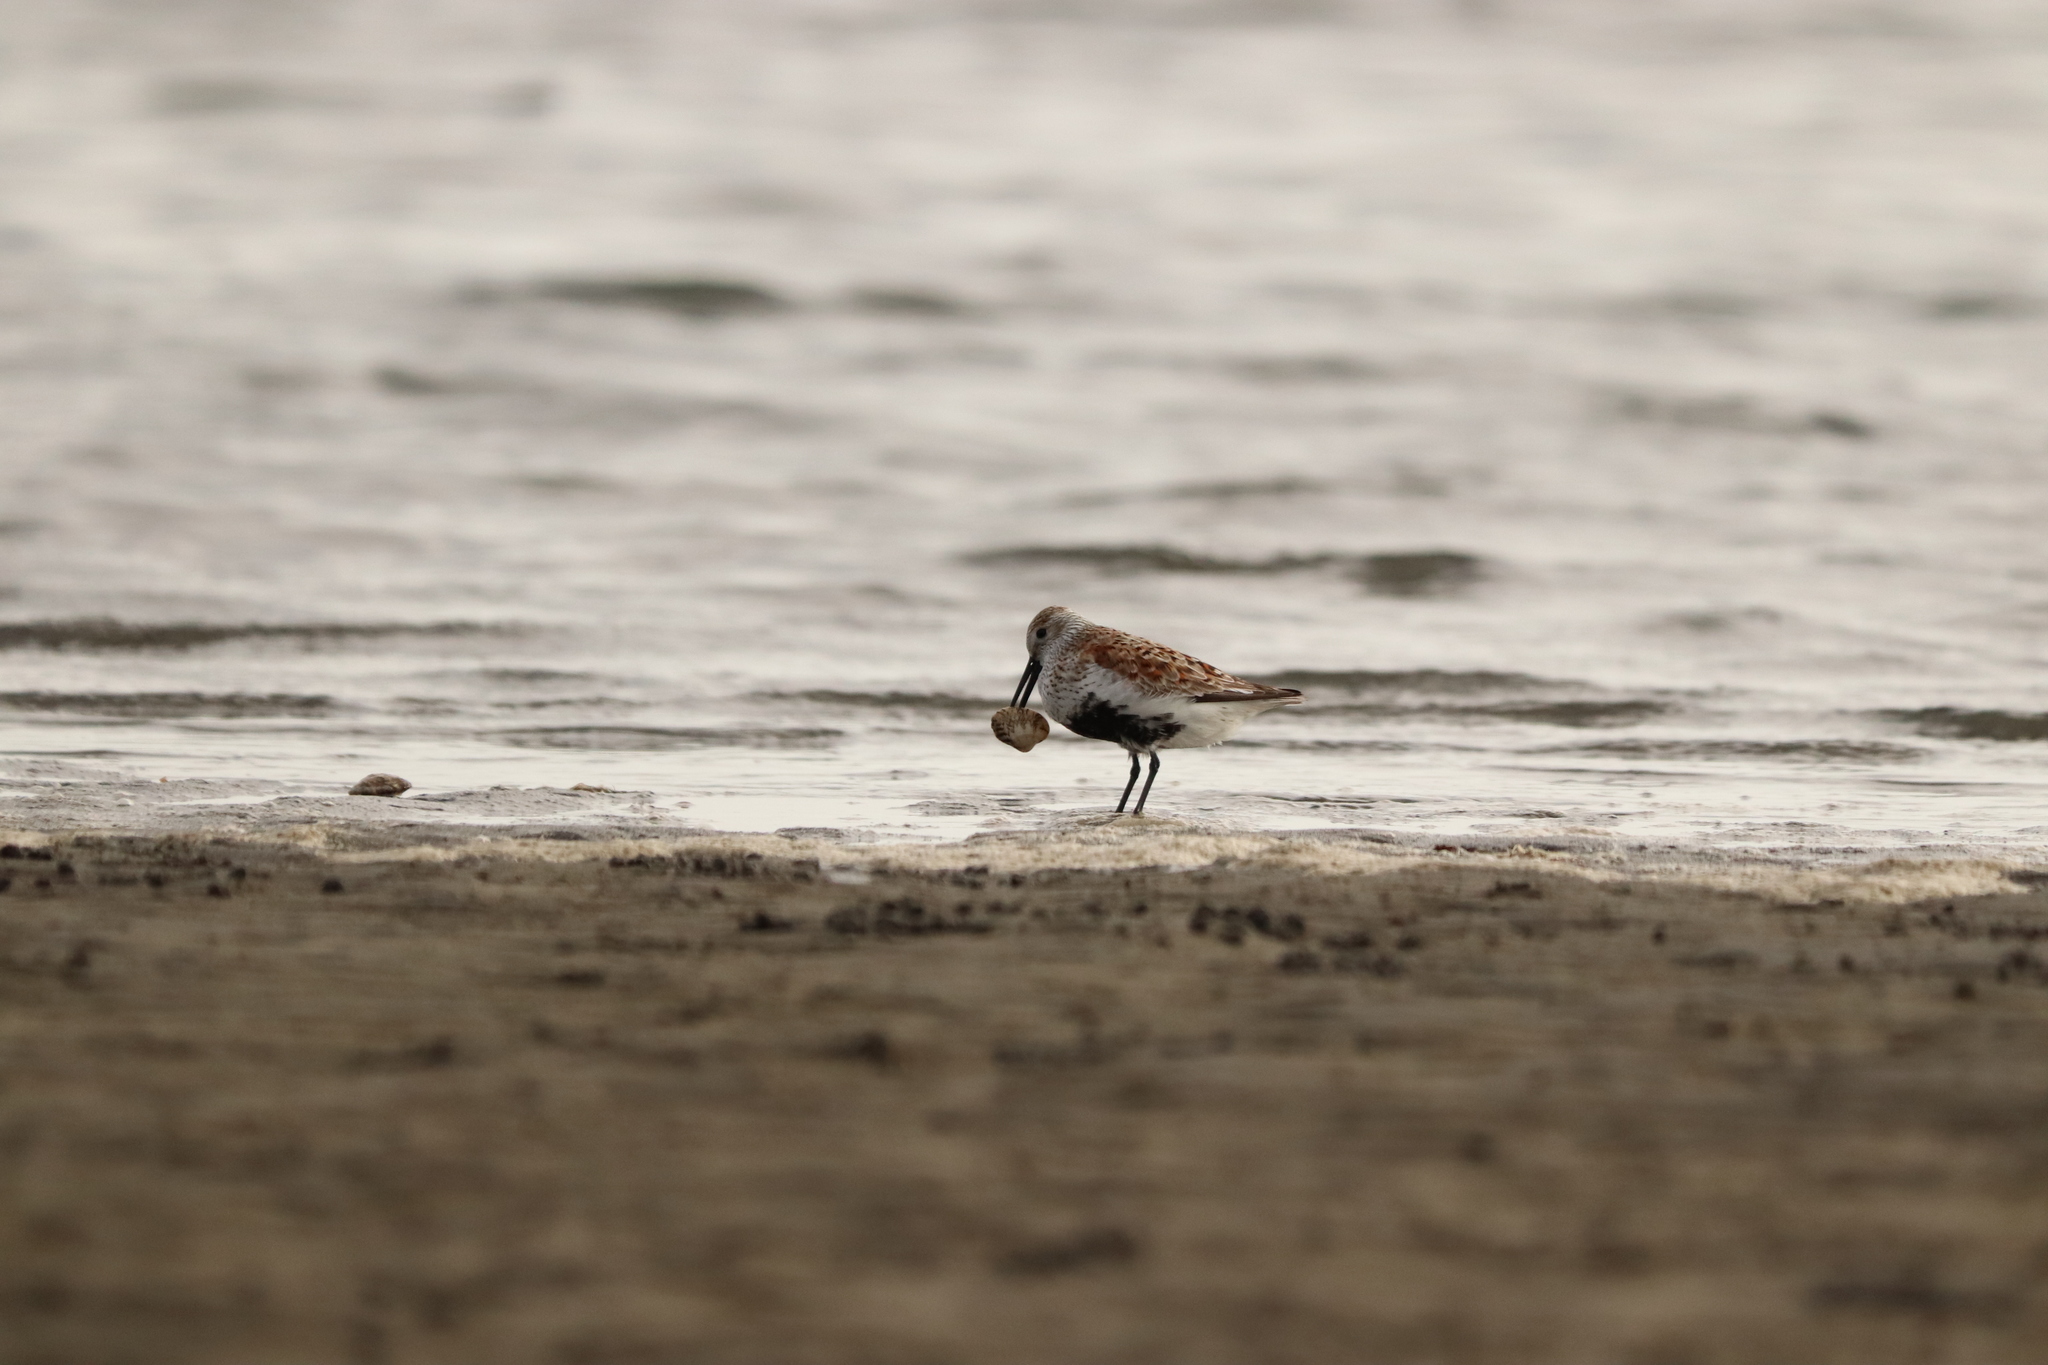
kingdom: Animalia
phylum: Chordata
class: Aves
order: Charadriiformes
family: Scolopacidae
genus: Calidris
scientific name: Calidris alpina
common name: Dunlin
